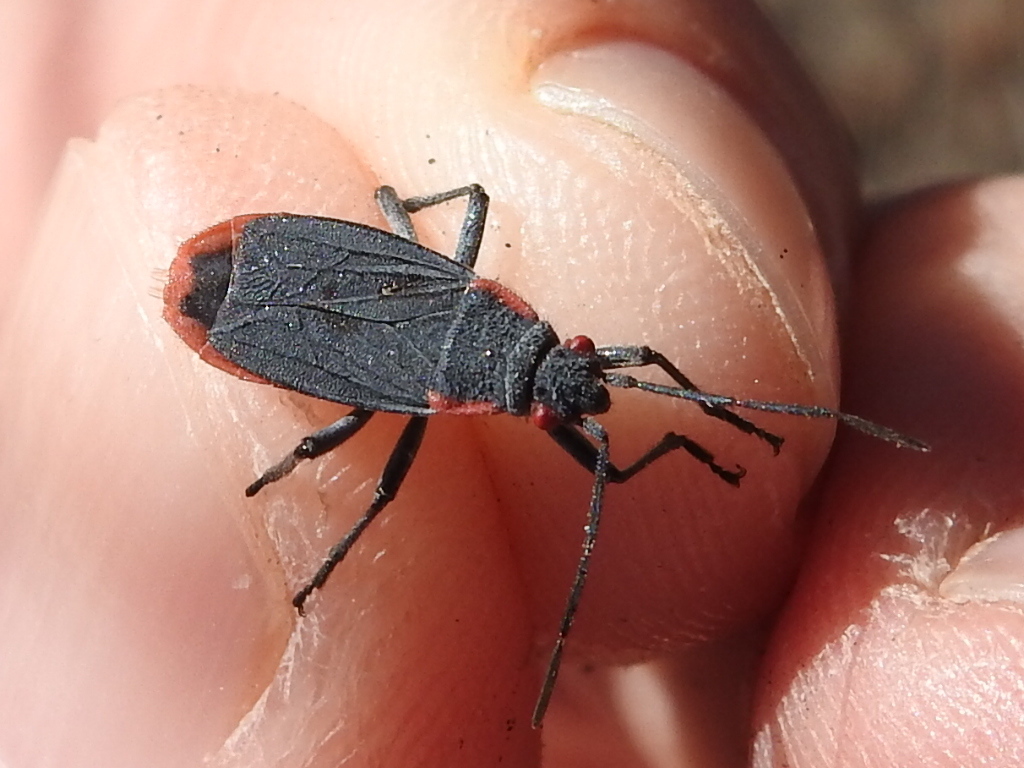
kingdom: Animalia
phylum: Arthropoda
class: Insecta
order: Hemiptera
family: Rhopalidae
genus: Jadera
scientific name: Jadera haematoloma
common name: Red-shouldered bug
